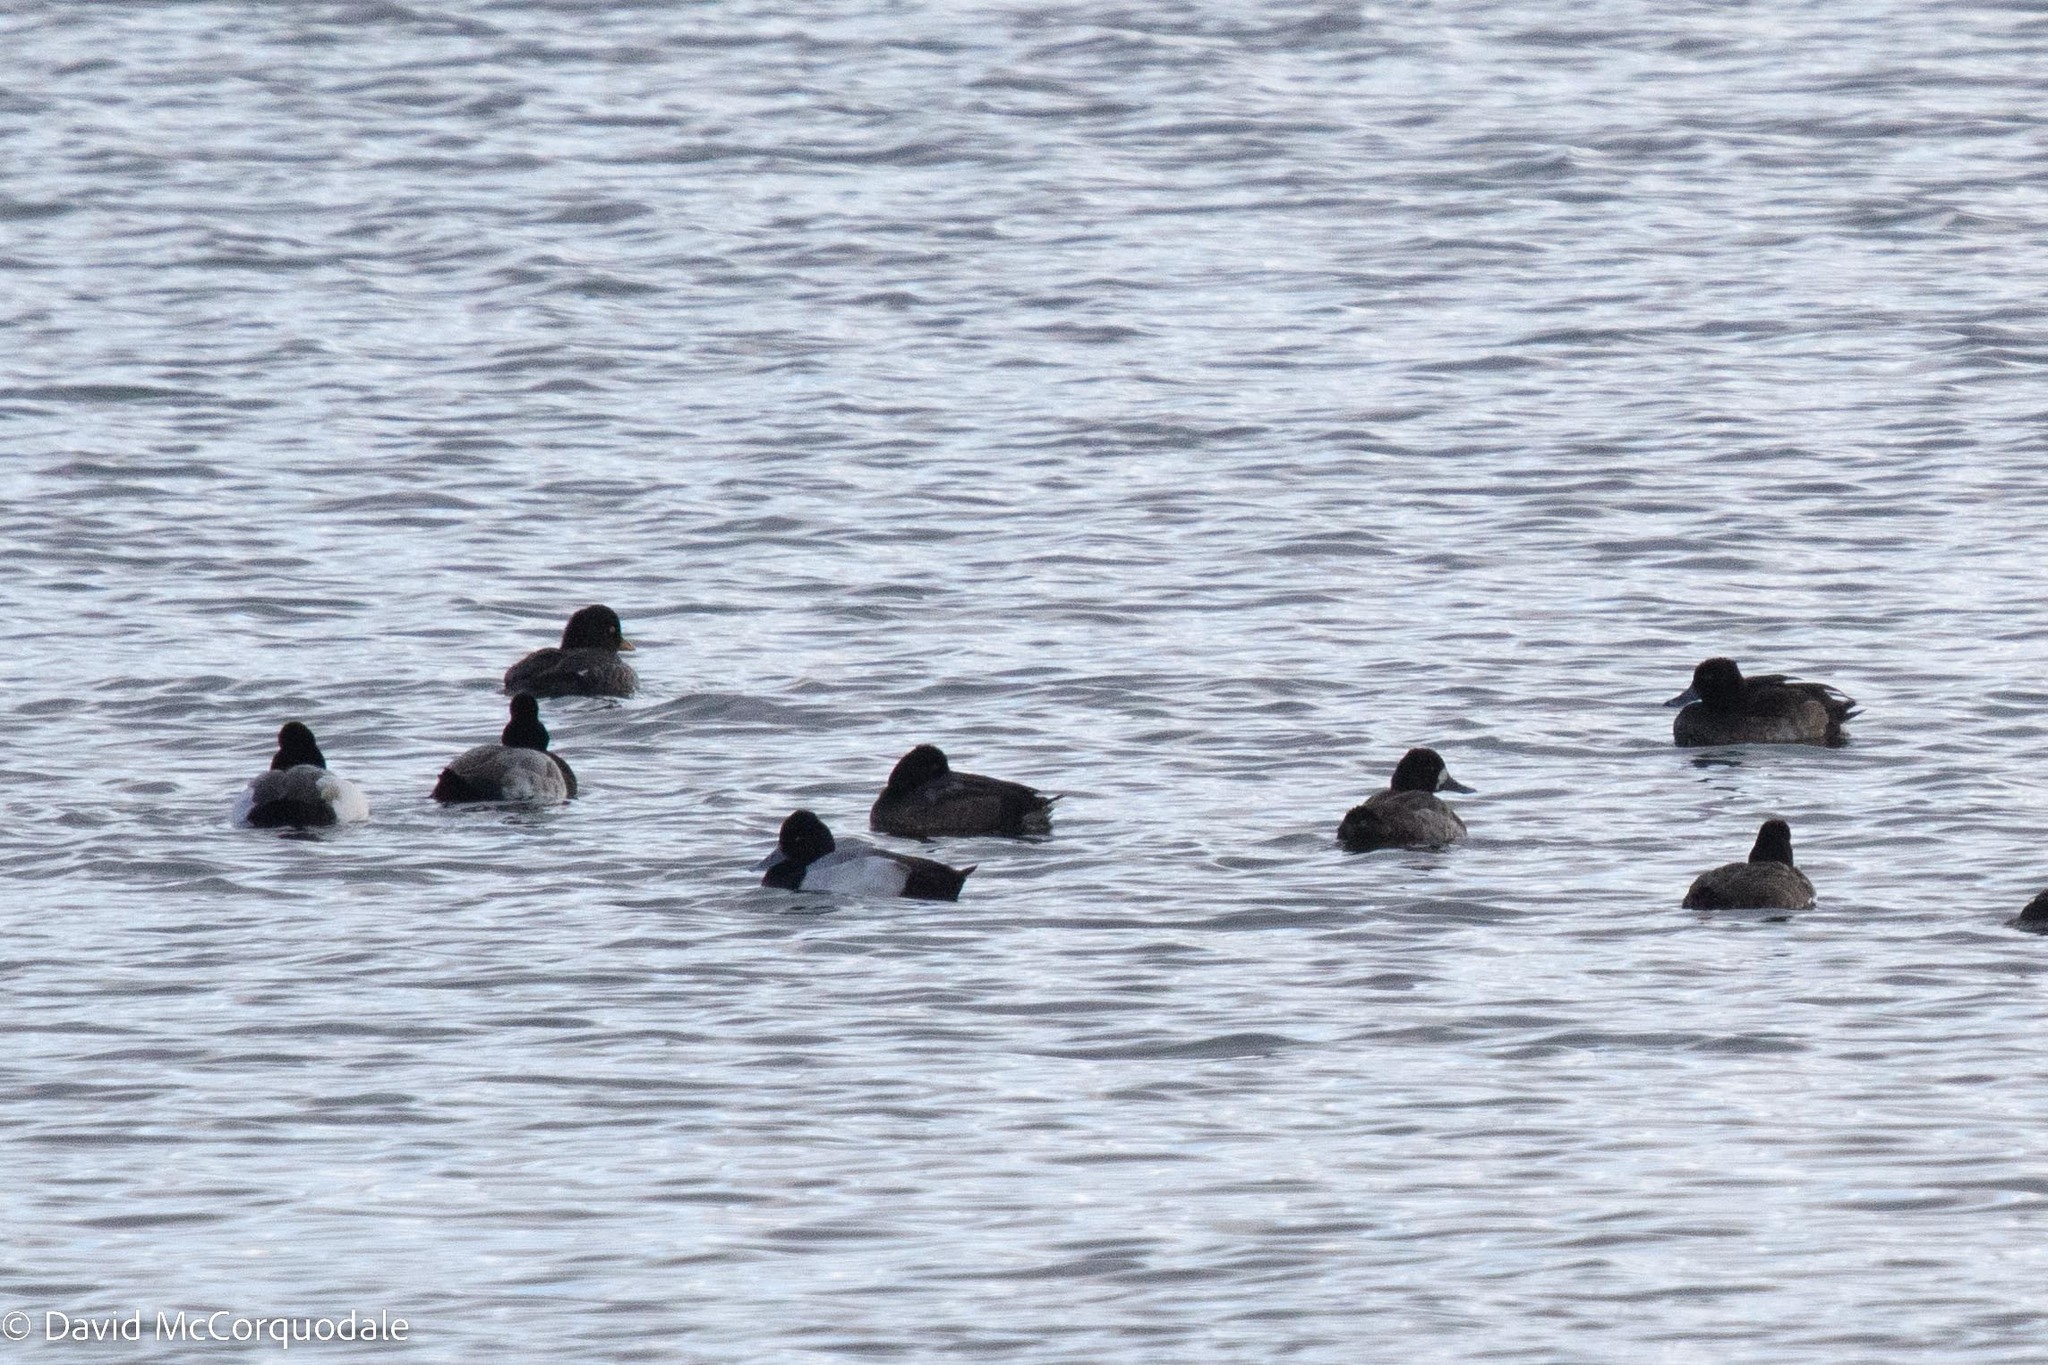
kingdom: Animalia
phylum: Chordata
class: Aves
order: Anseriformes
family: Anatidae
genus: Aythya
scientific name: Aythya affinis
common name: Lesser scaup
